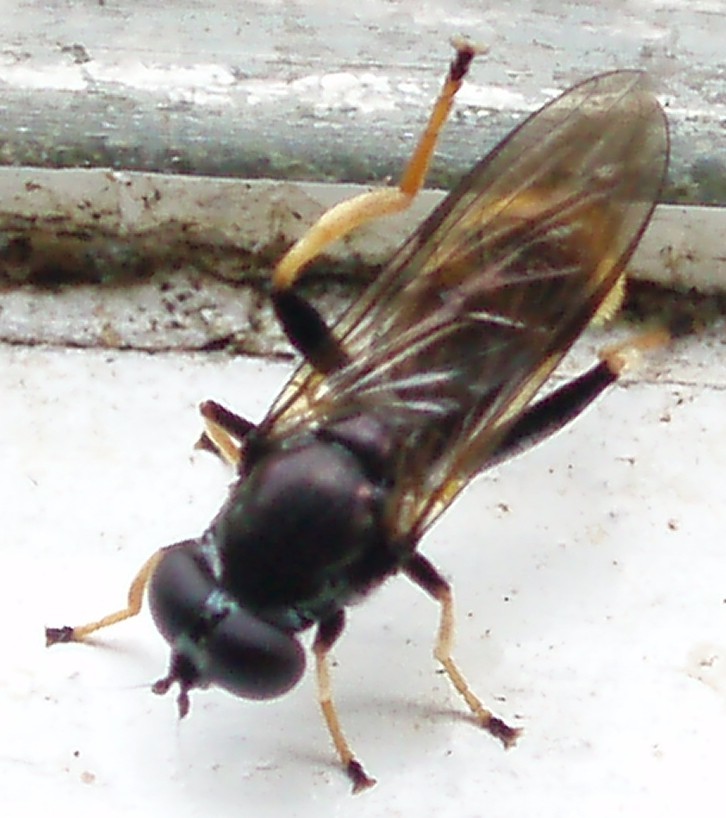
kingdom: Animalia
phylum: Arthropoda
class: Insecta
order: Diptera
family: Syrphidae
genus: Xylota
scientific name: Xylota xanthocnema
